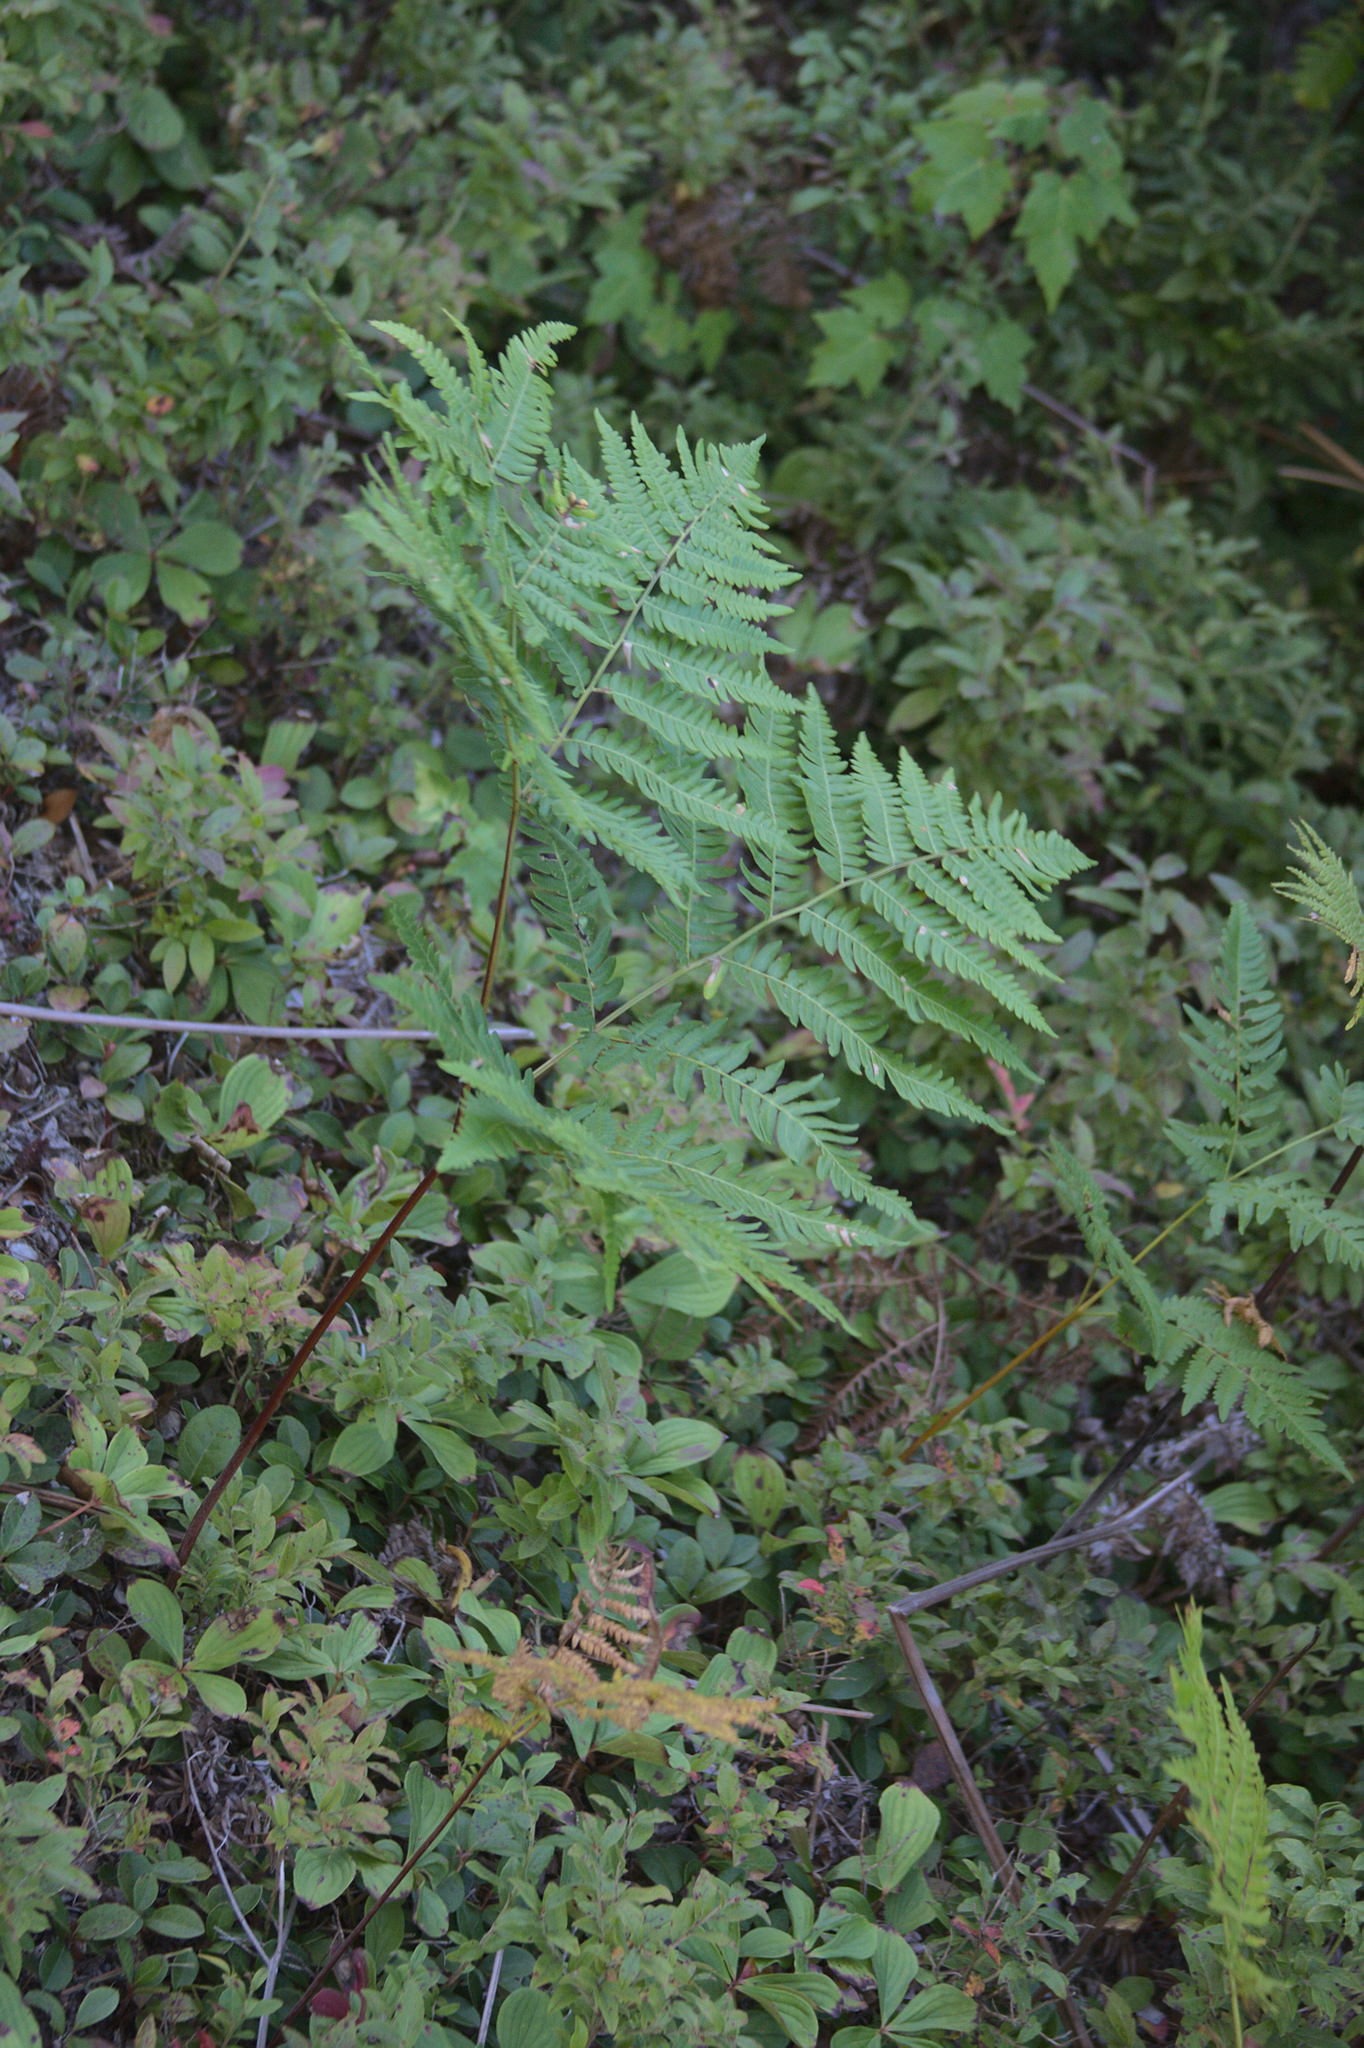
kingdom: Plantae
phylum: Tracheophyta
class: Polypodiopsida
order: Polypodiales
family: Dennstaedtiaceae
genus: Pteridium
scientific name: Pteridium aquilinum
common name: Bracken
